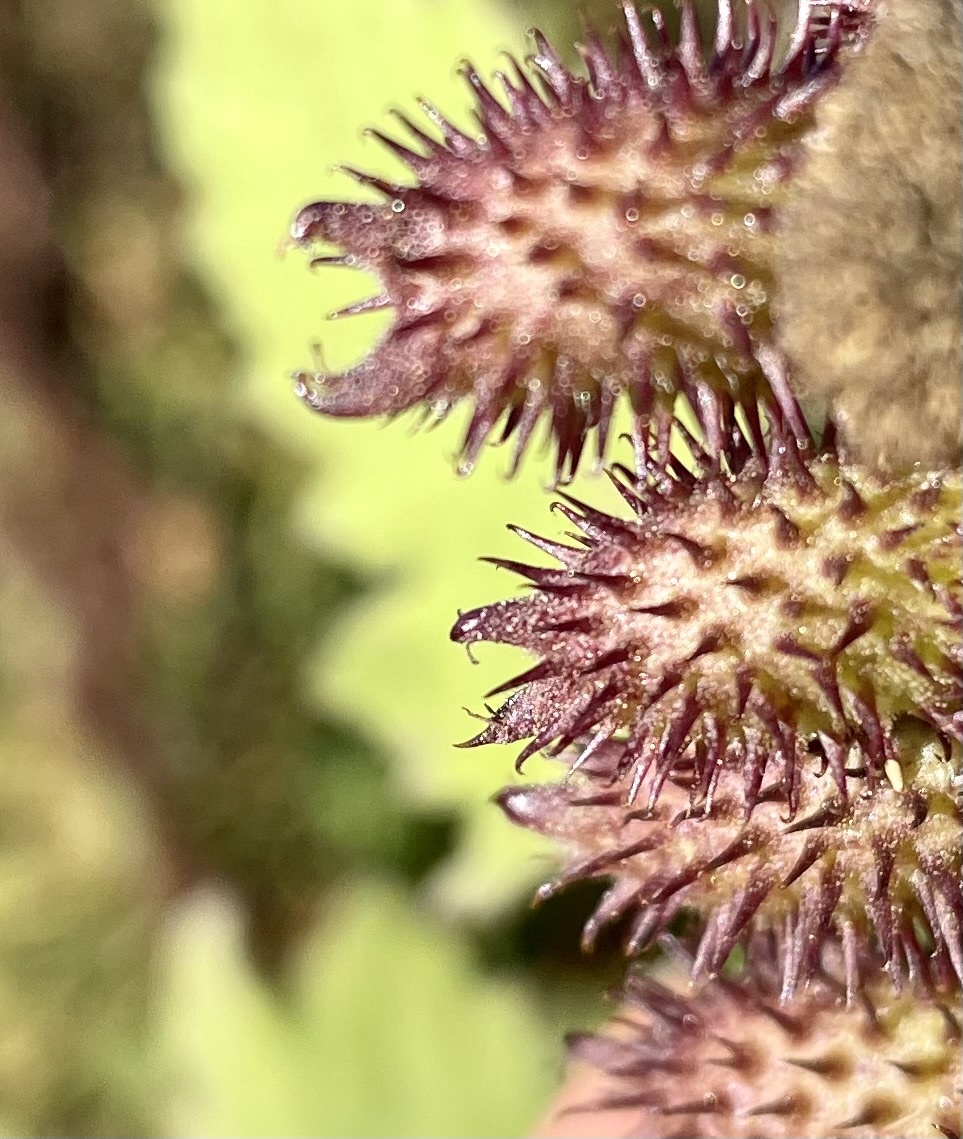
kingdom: Plantae
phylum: Tracheophyta
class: Magnoliopsida
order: Asterales
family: Asteraceae
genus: Xanthium
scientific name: Xanthium orientale
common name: Californian burr
